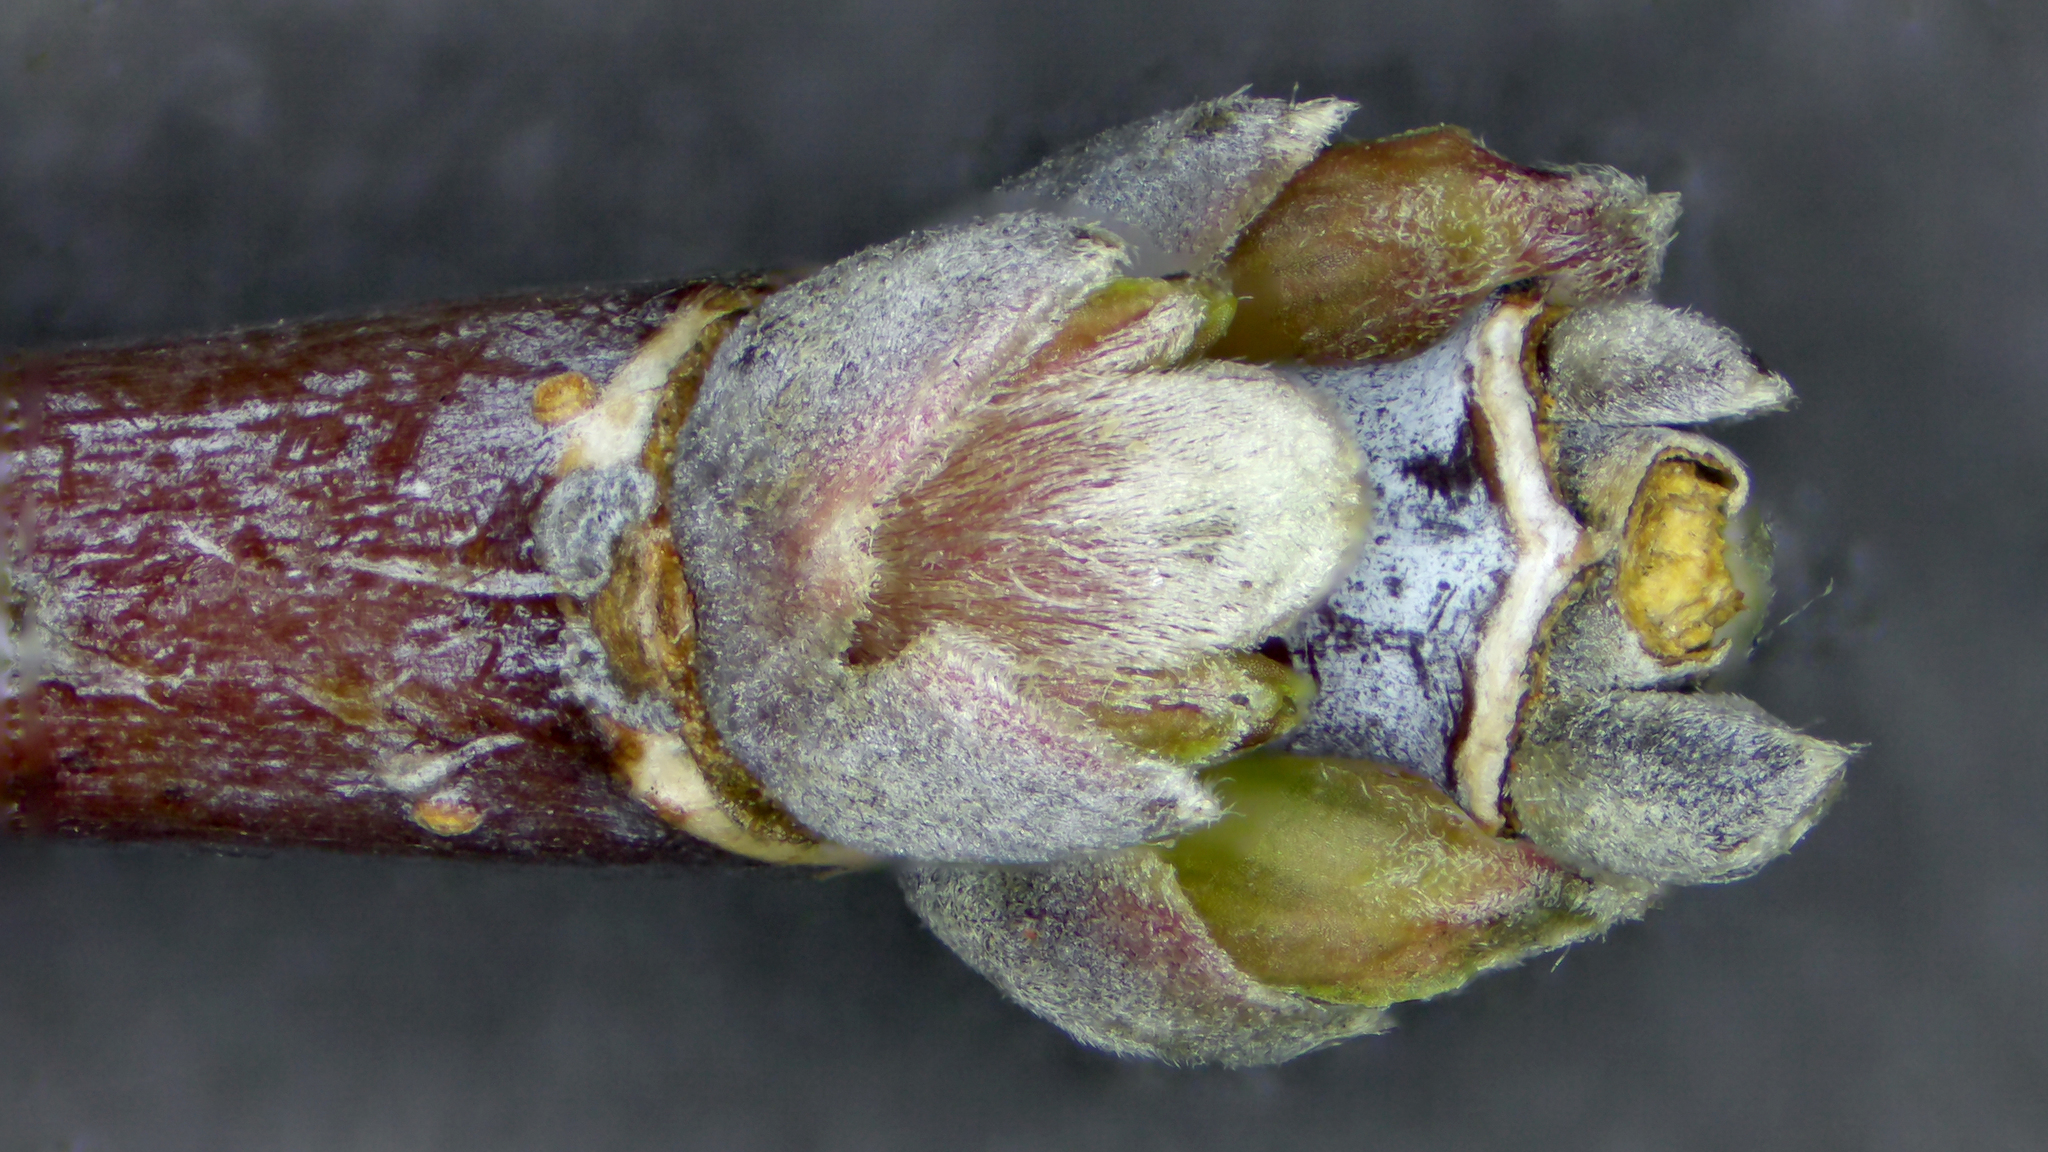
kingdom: Plantae
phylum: Tracheophyta
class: Magnoliopsida
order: Sapindales
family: Sapindaceae
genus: Acer
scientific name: Acer negundo
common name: Ashleaf maple
